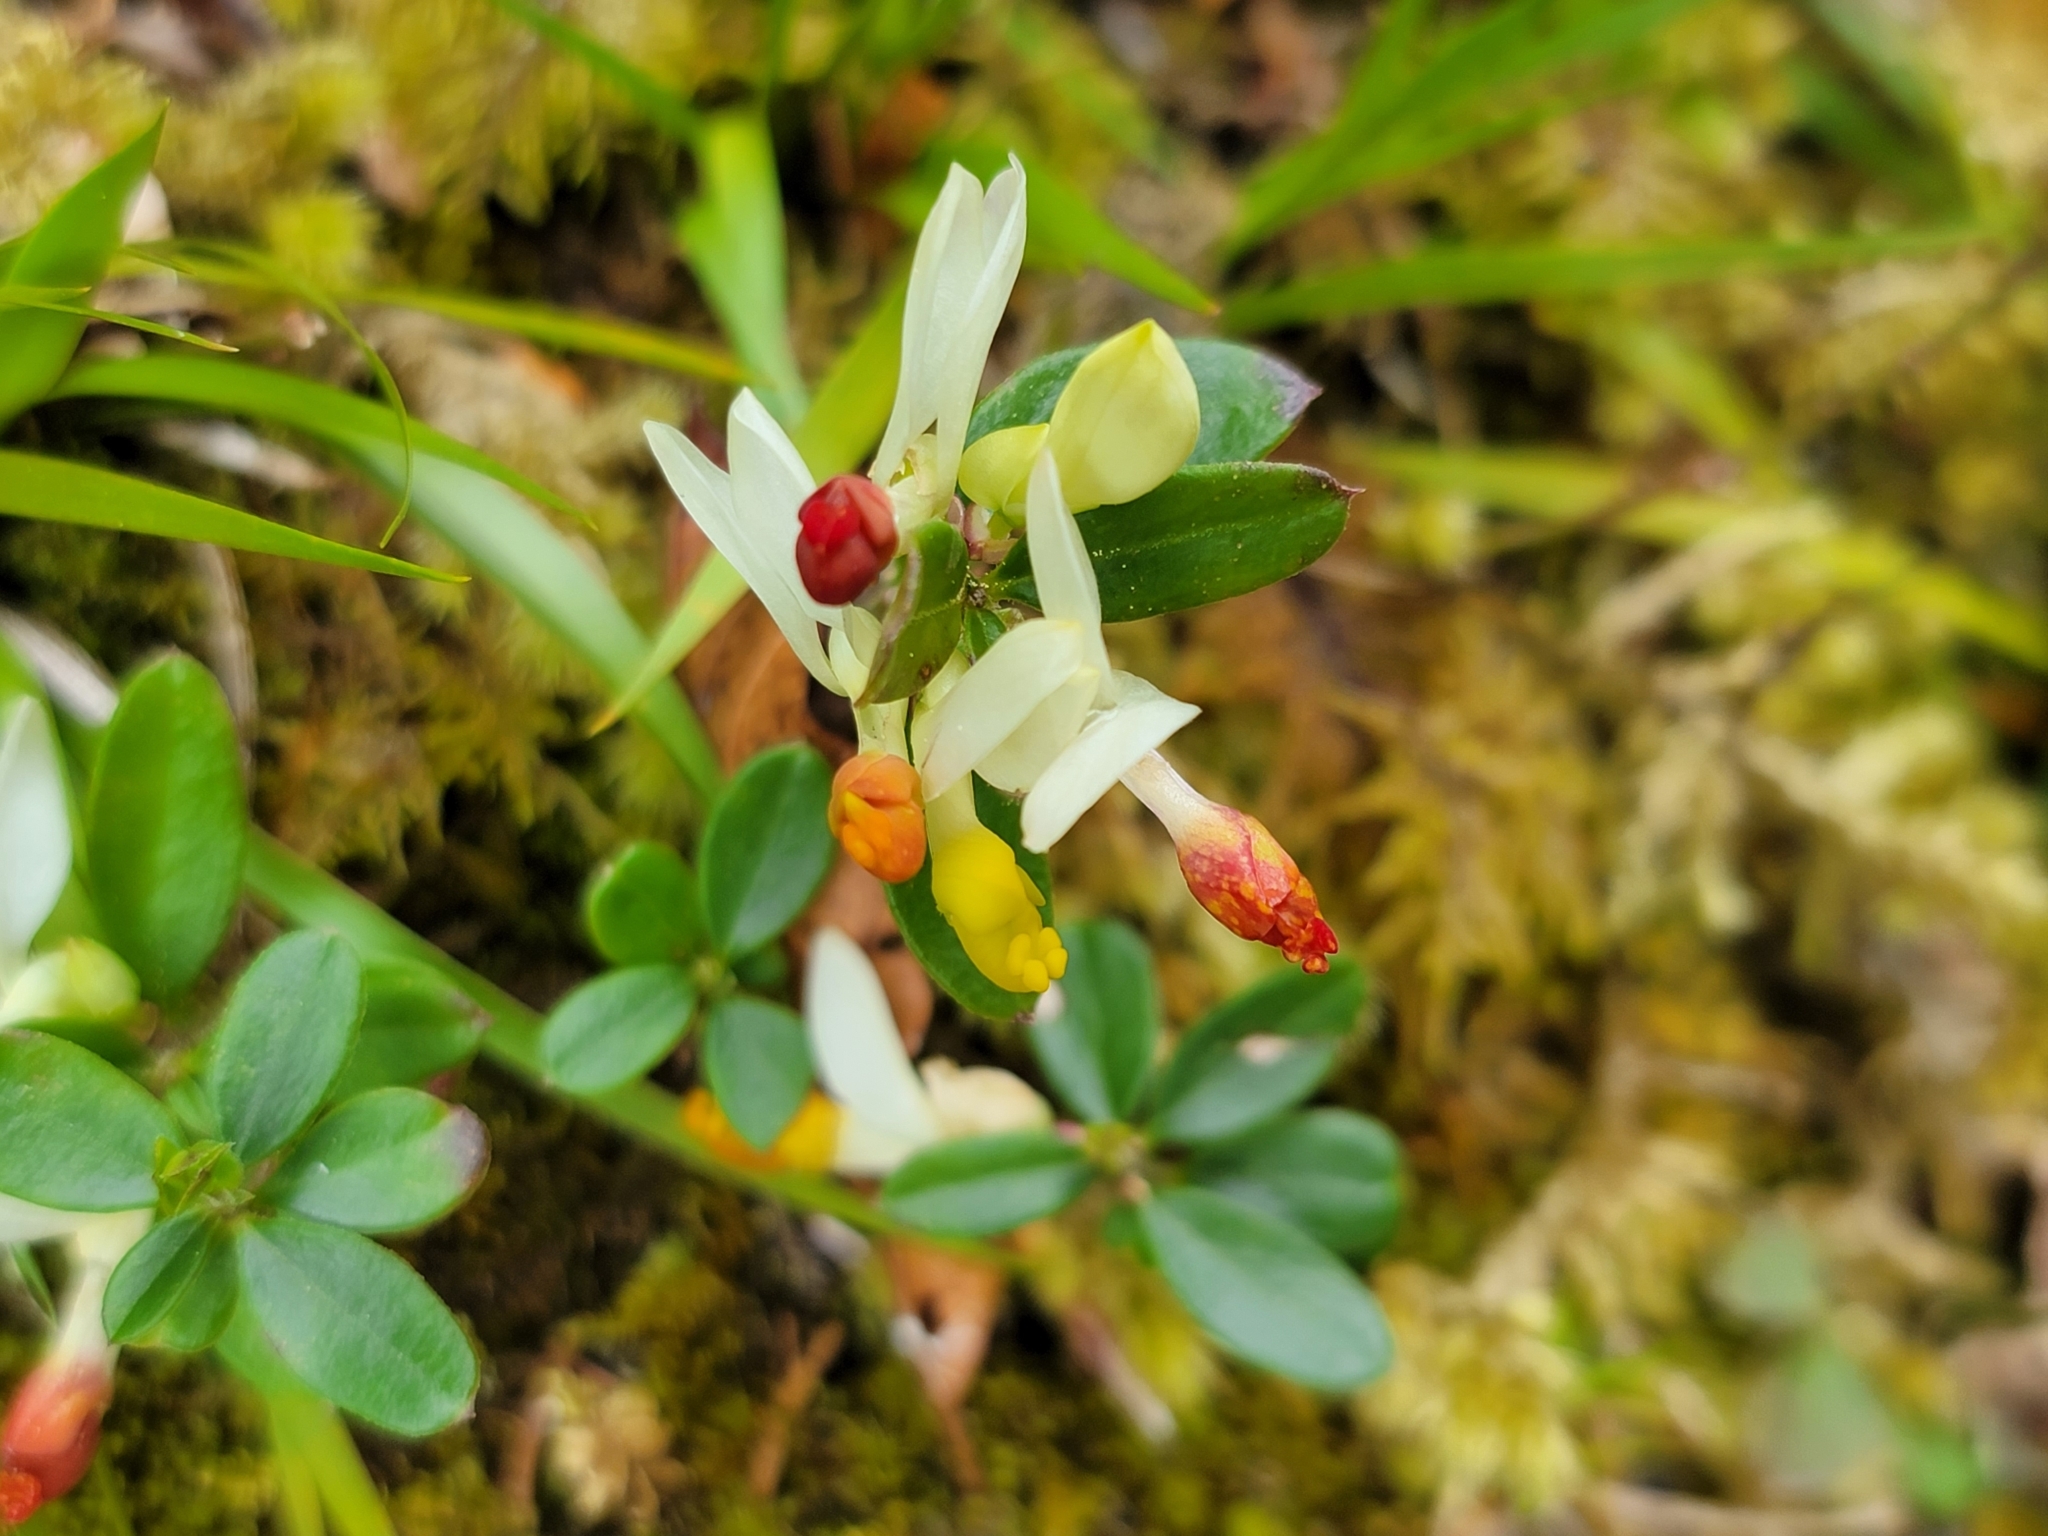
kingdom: Plantae
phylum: Tracheophyta
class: Magnoliopsida
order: Fabales
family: Polygalaceae
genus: Polygaloides
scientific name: Polygaloides chamaebuxus
